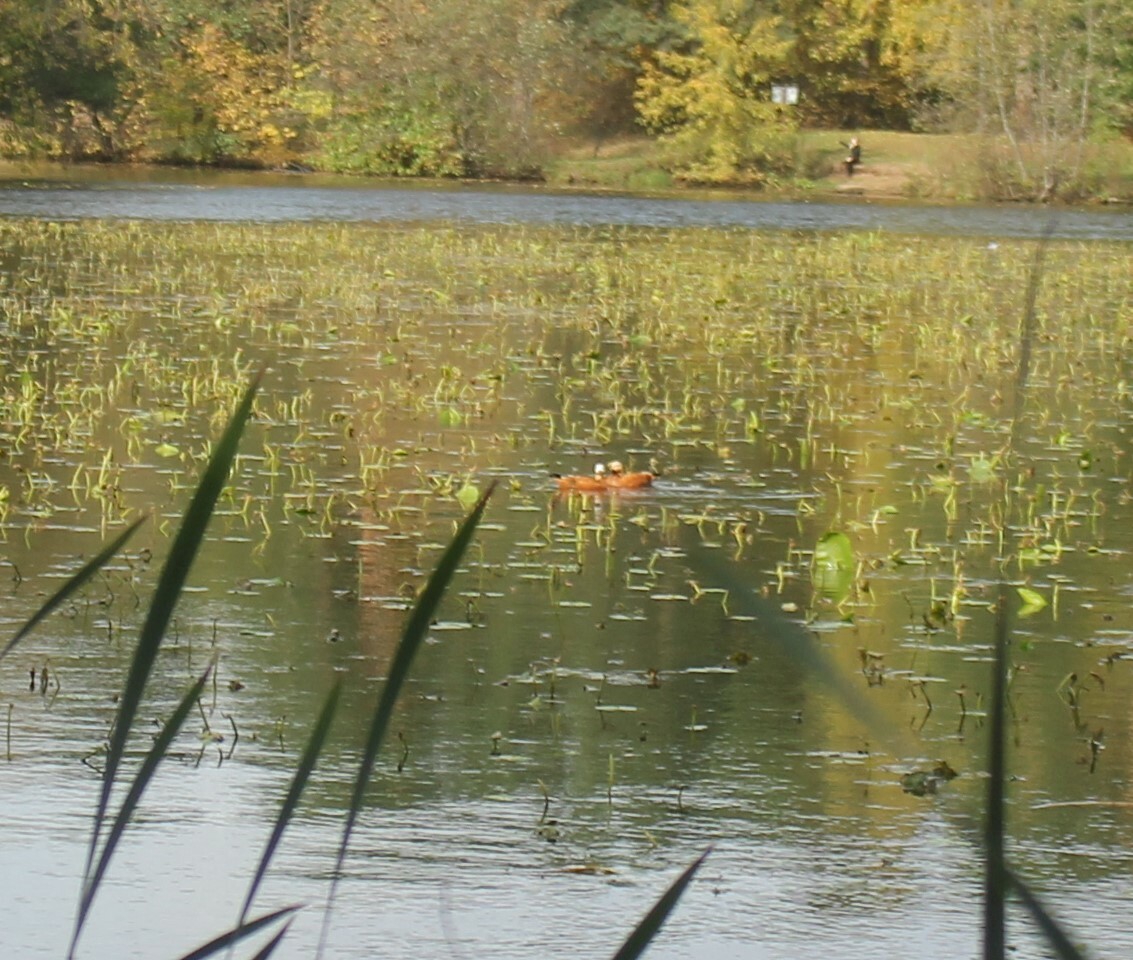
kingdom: Animalia
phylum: Chordata
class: Aves
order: Anseriformes
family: Anatidae
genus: Tadorna
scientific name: Tadorna ferruginea
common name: Ruddy shelduck
